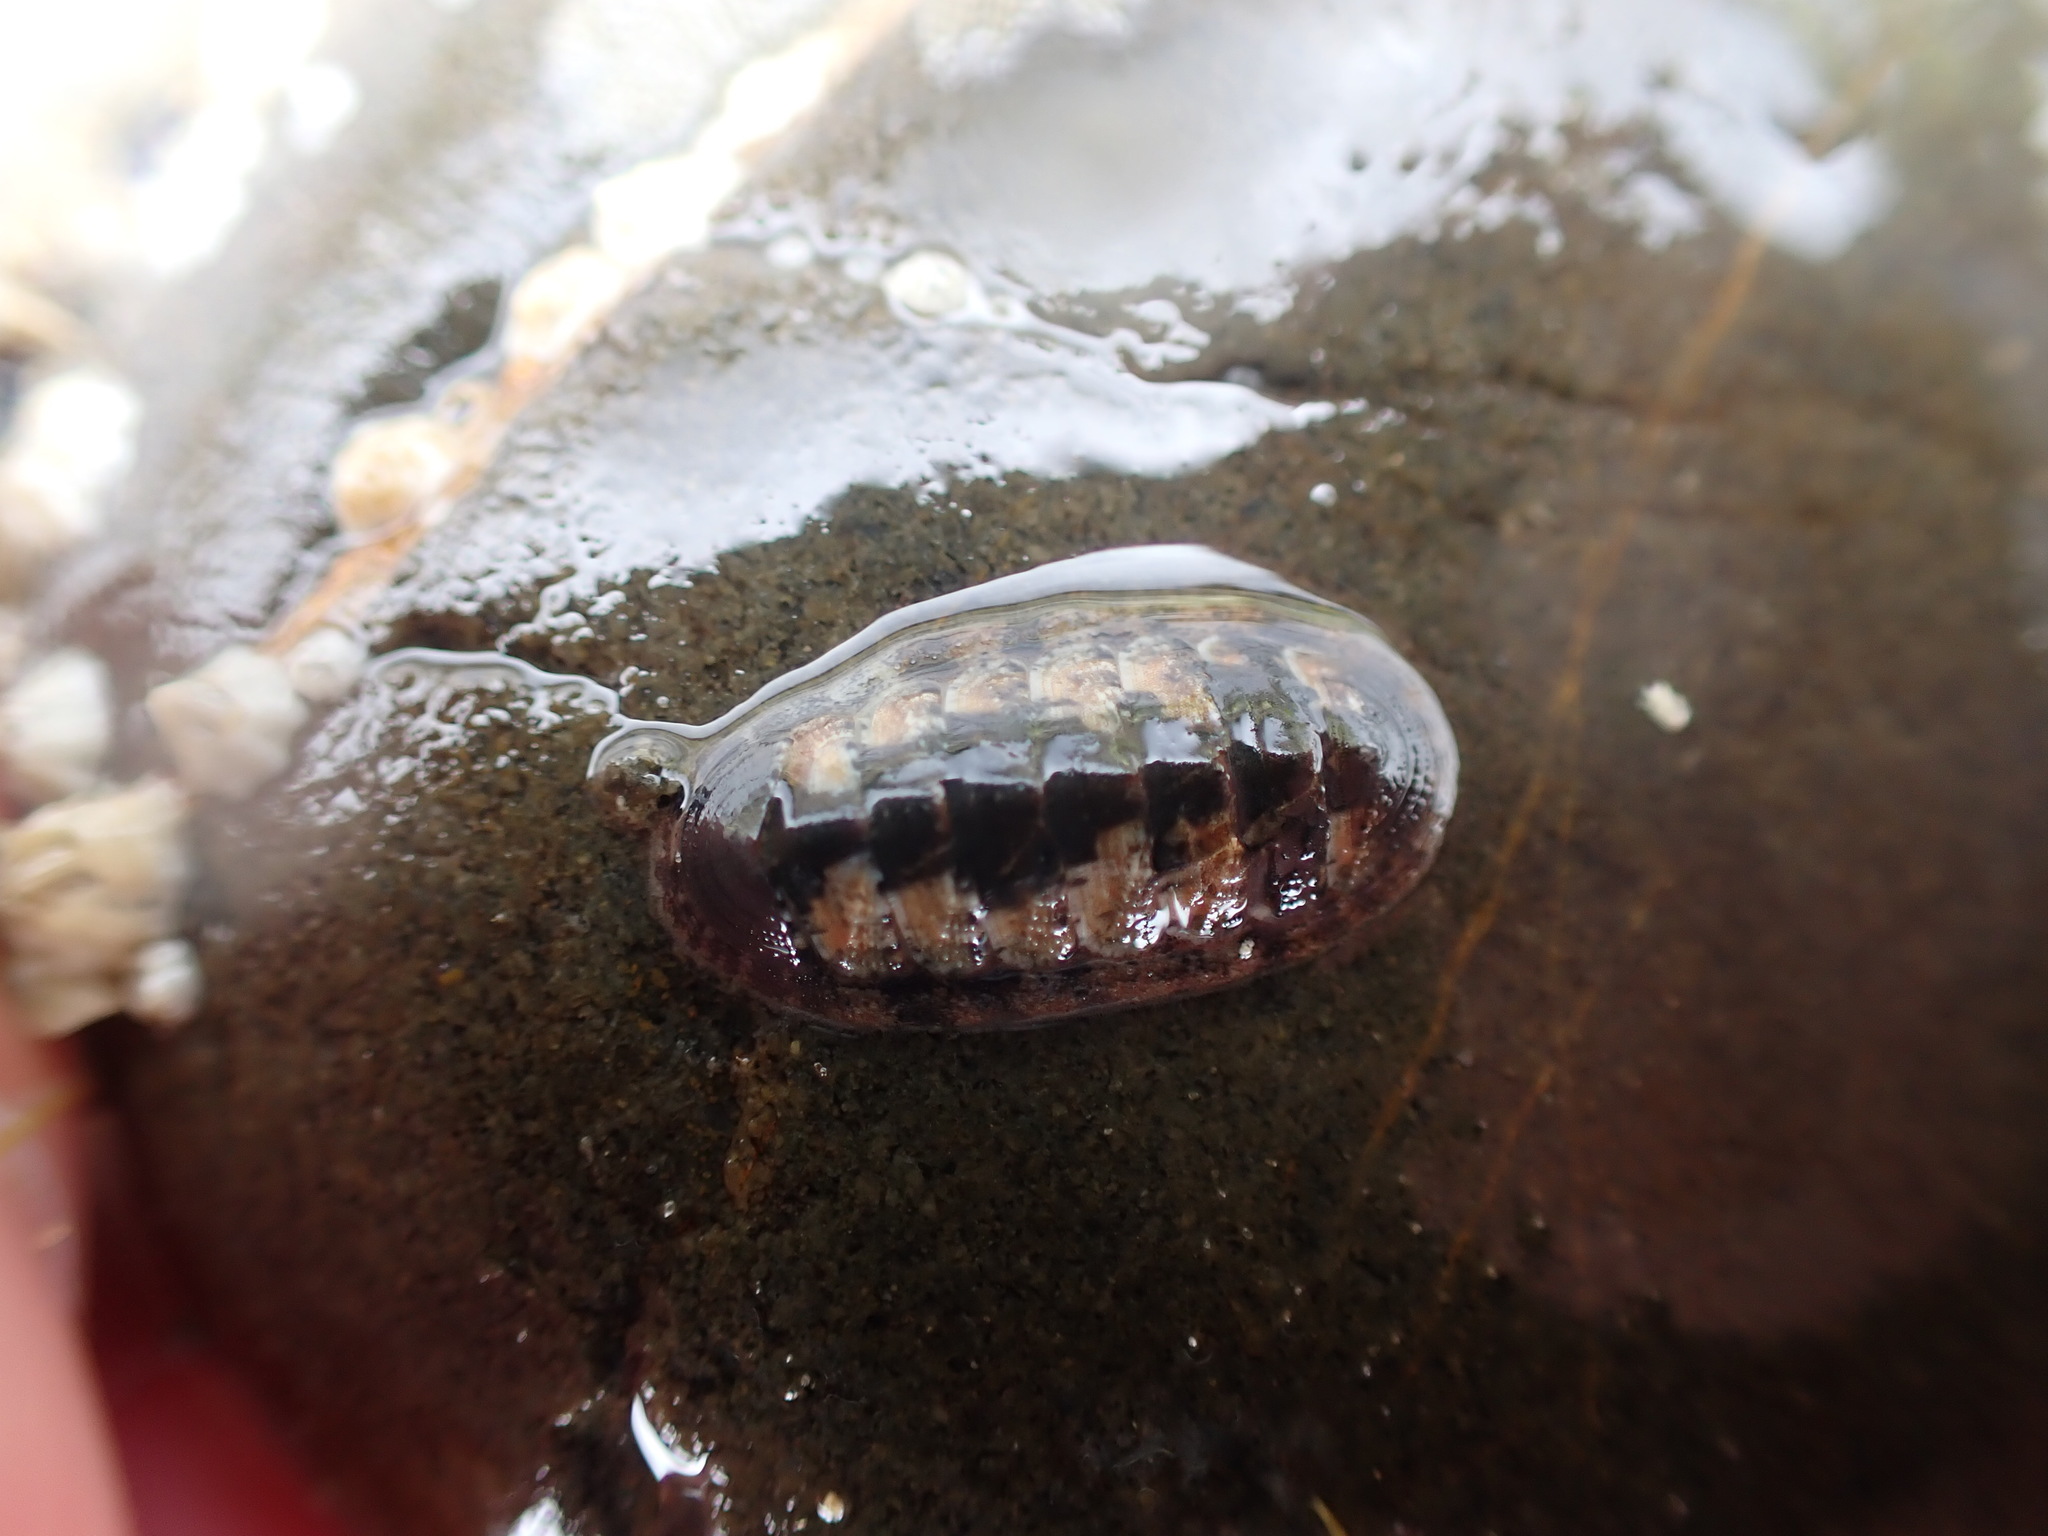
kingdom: Animalia
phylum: Mollusca
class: Polyplacophora
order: Chitonida
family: Ischnochitonidae
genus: Ischnochiton
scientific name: Ischnochiton maorianus
